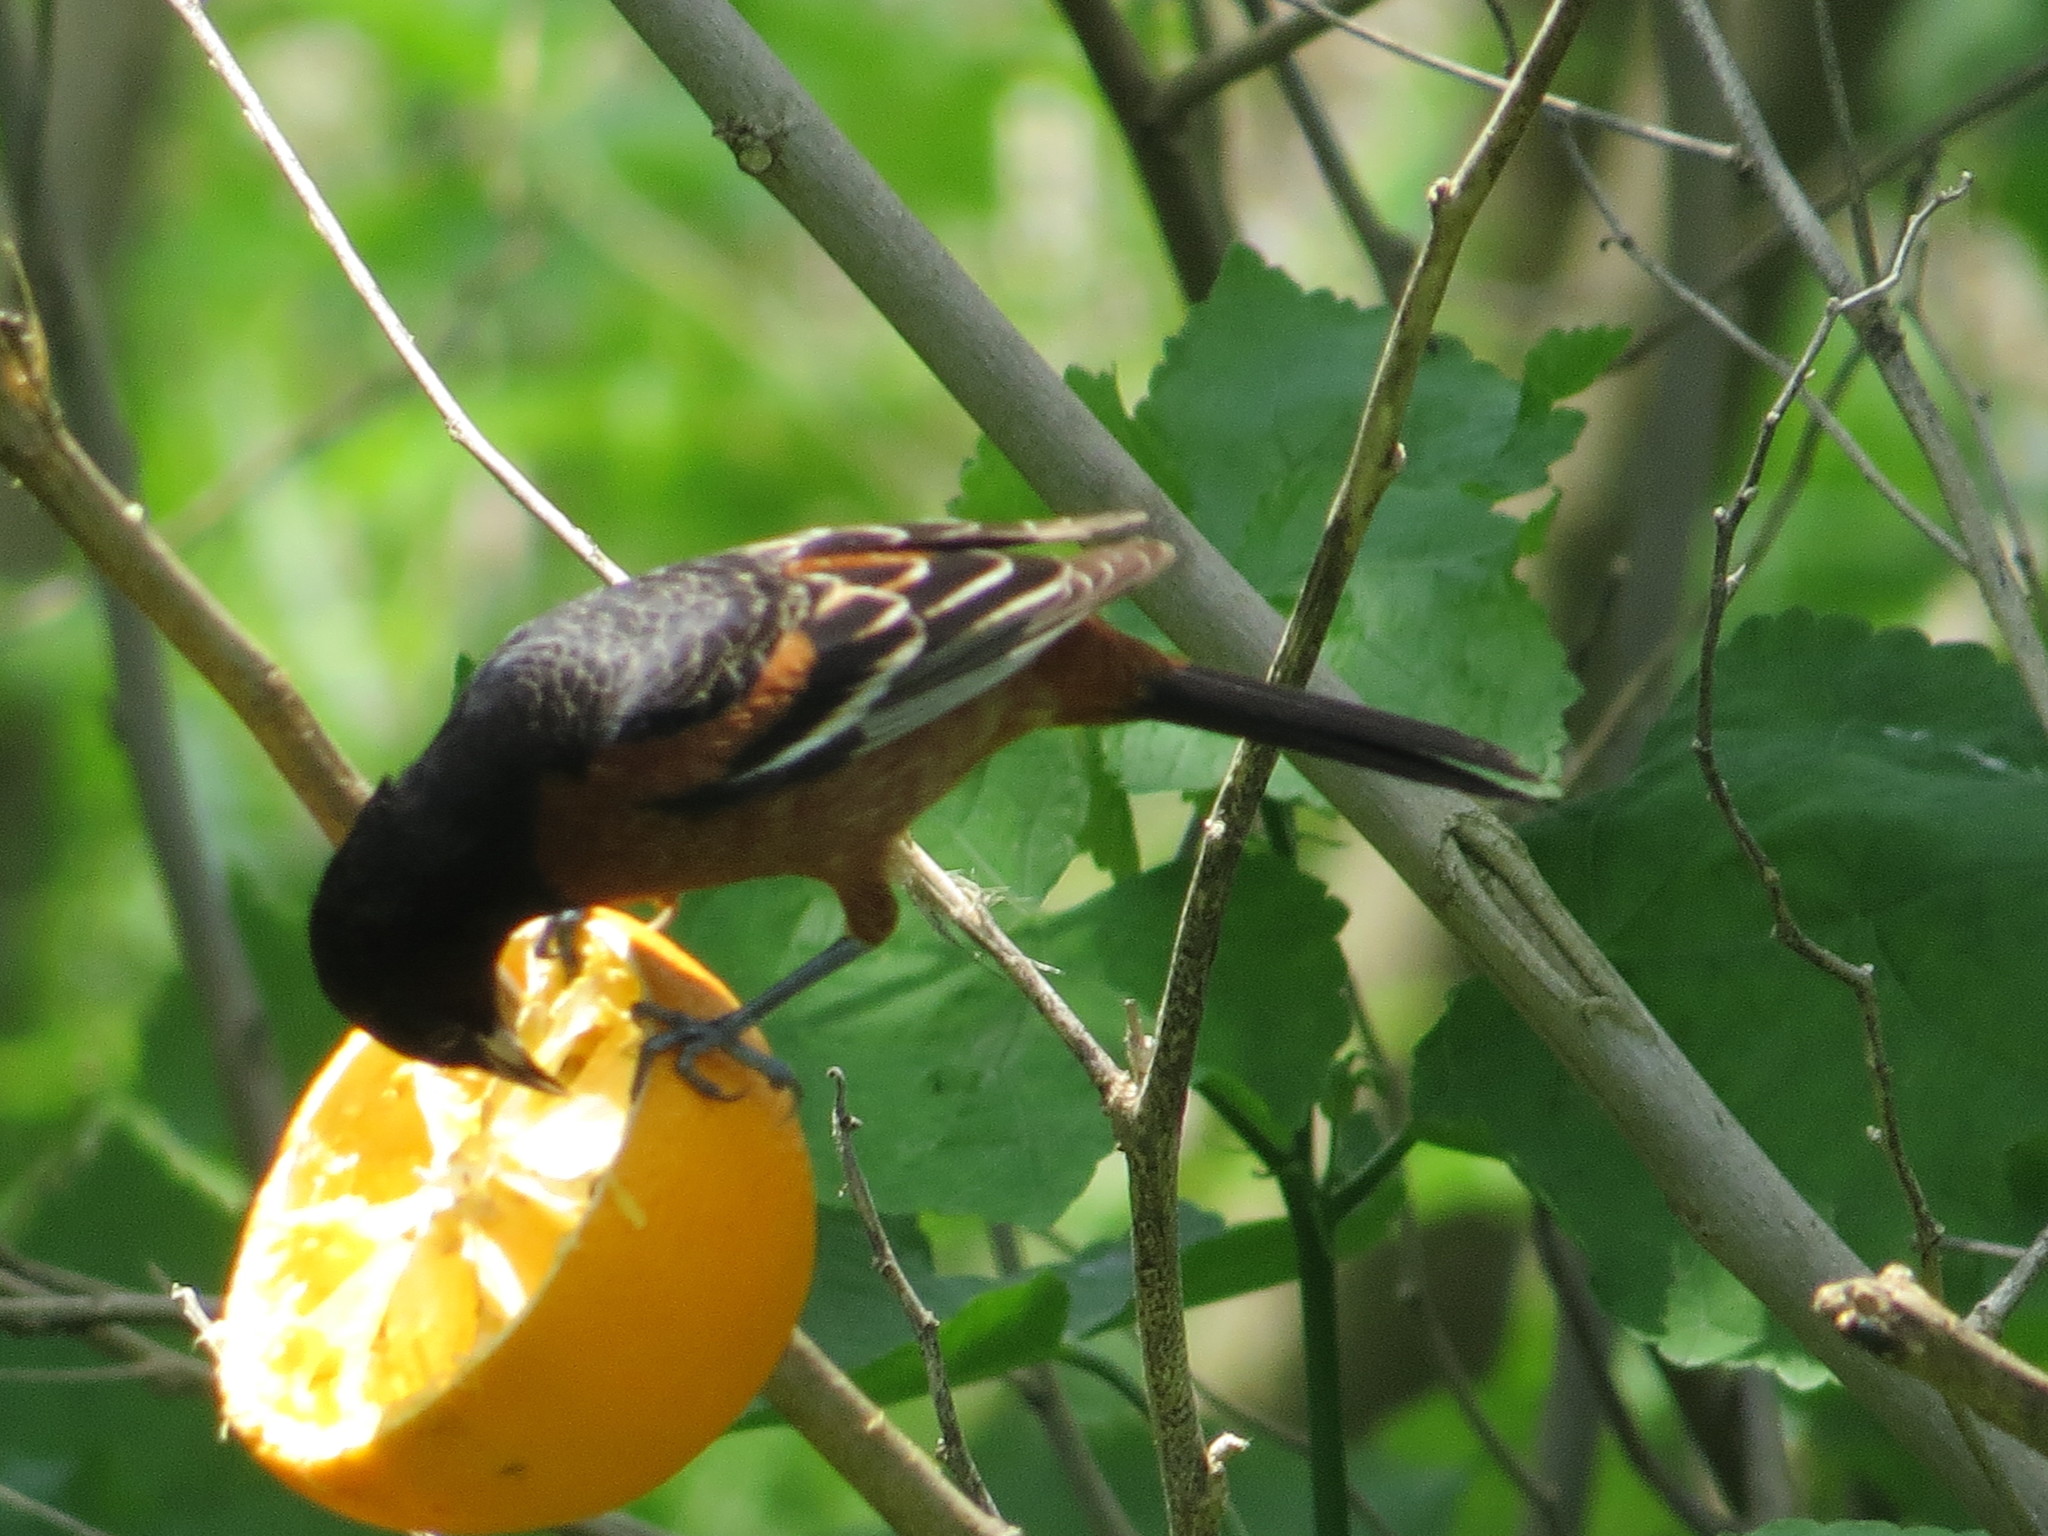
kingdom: Animalia
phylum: Chordata
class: Aves
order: Passeriformes
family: Icteridae
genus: Icterus
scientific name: Icterus spurius
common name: Orchard oriole
